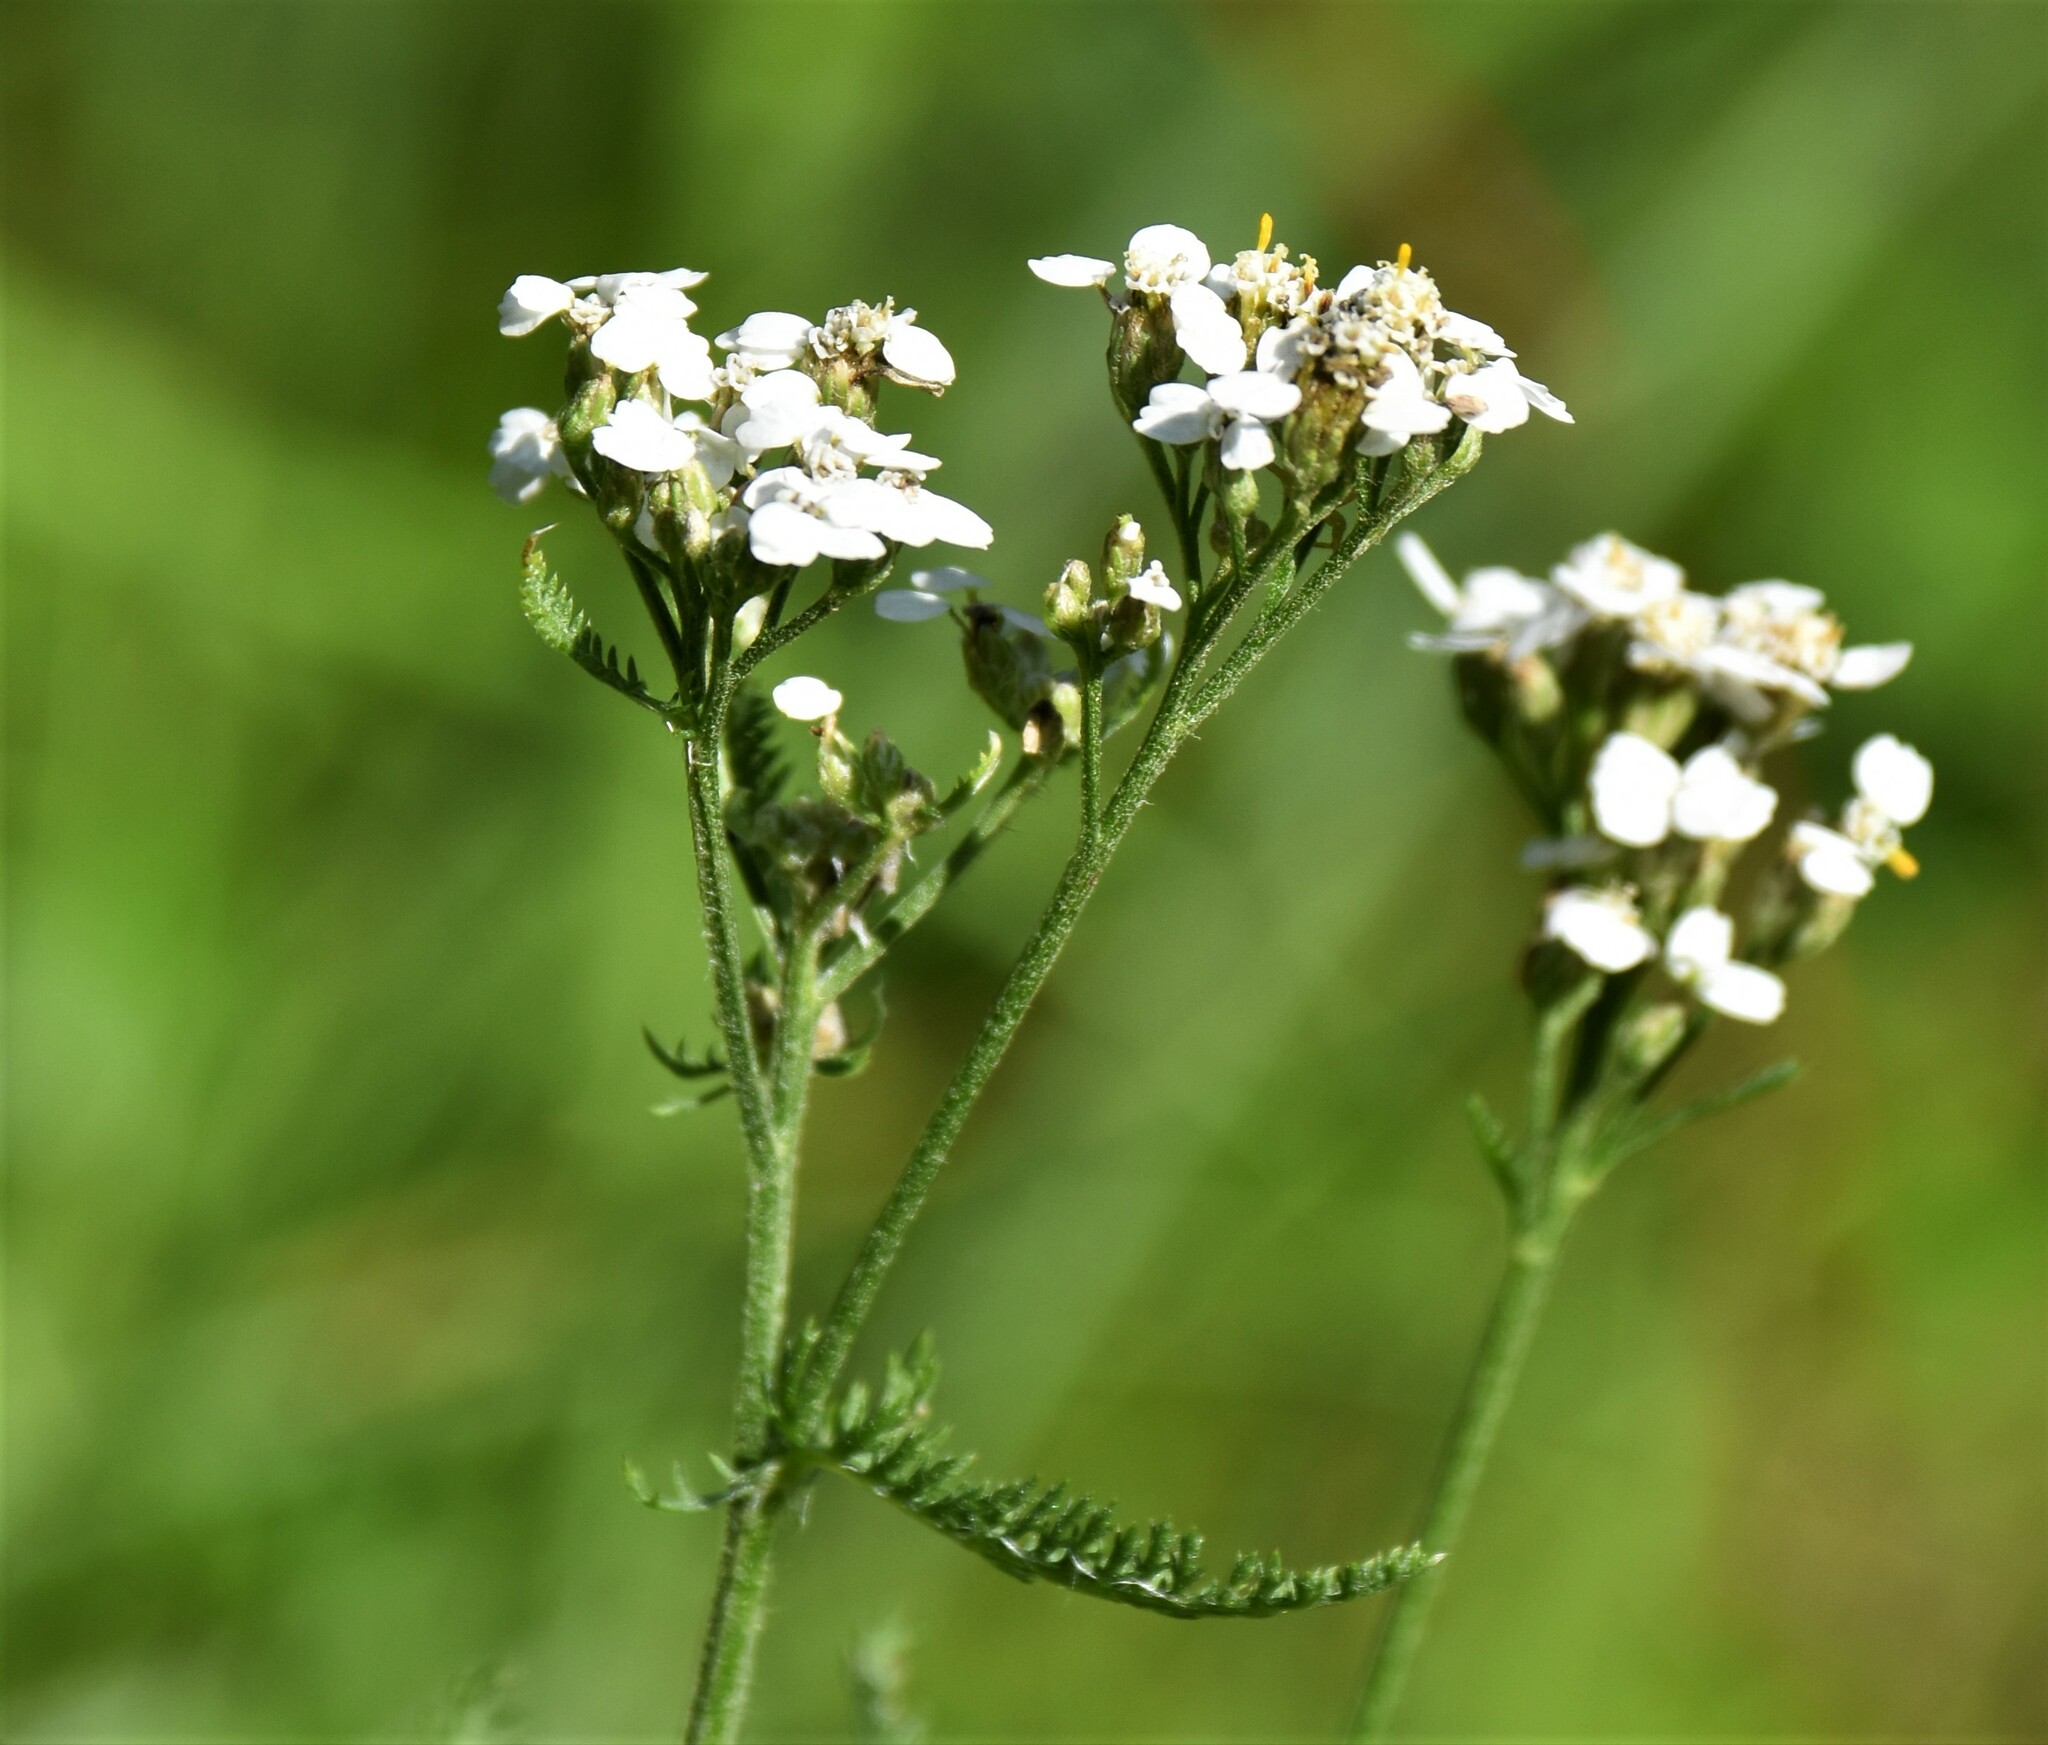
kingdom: Plantae
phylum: Tracheophyta
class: Magnoliopsida
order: Asterales
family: Asteraceae
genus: Achillea
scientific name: Achillea millefolium
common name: Yarrow
